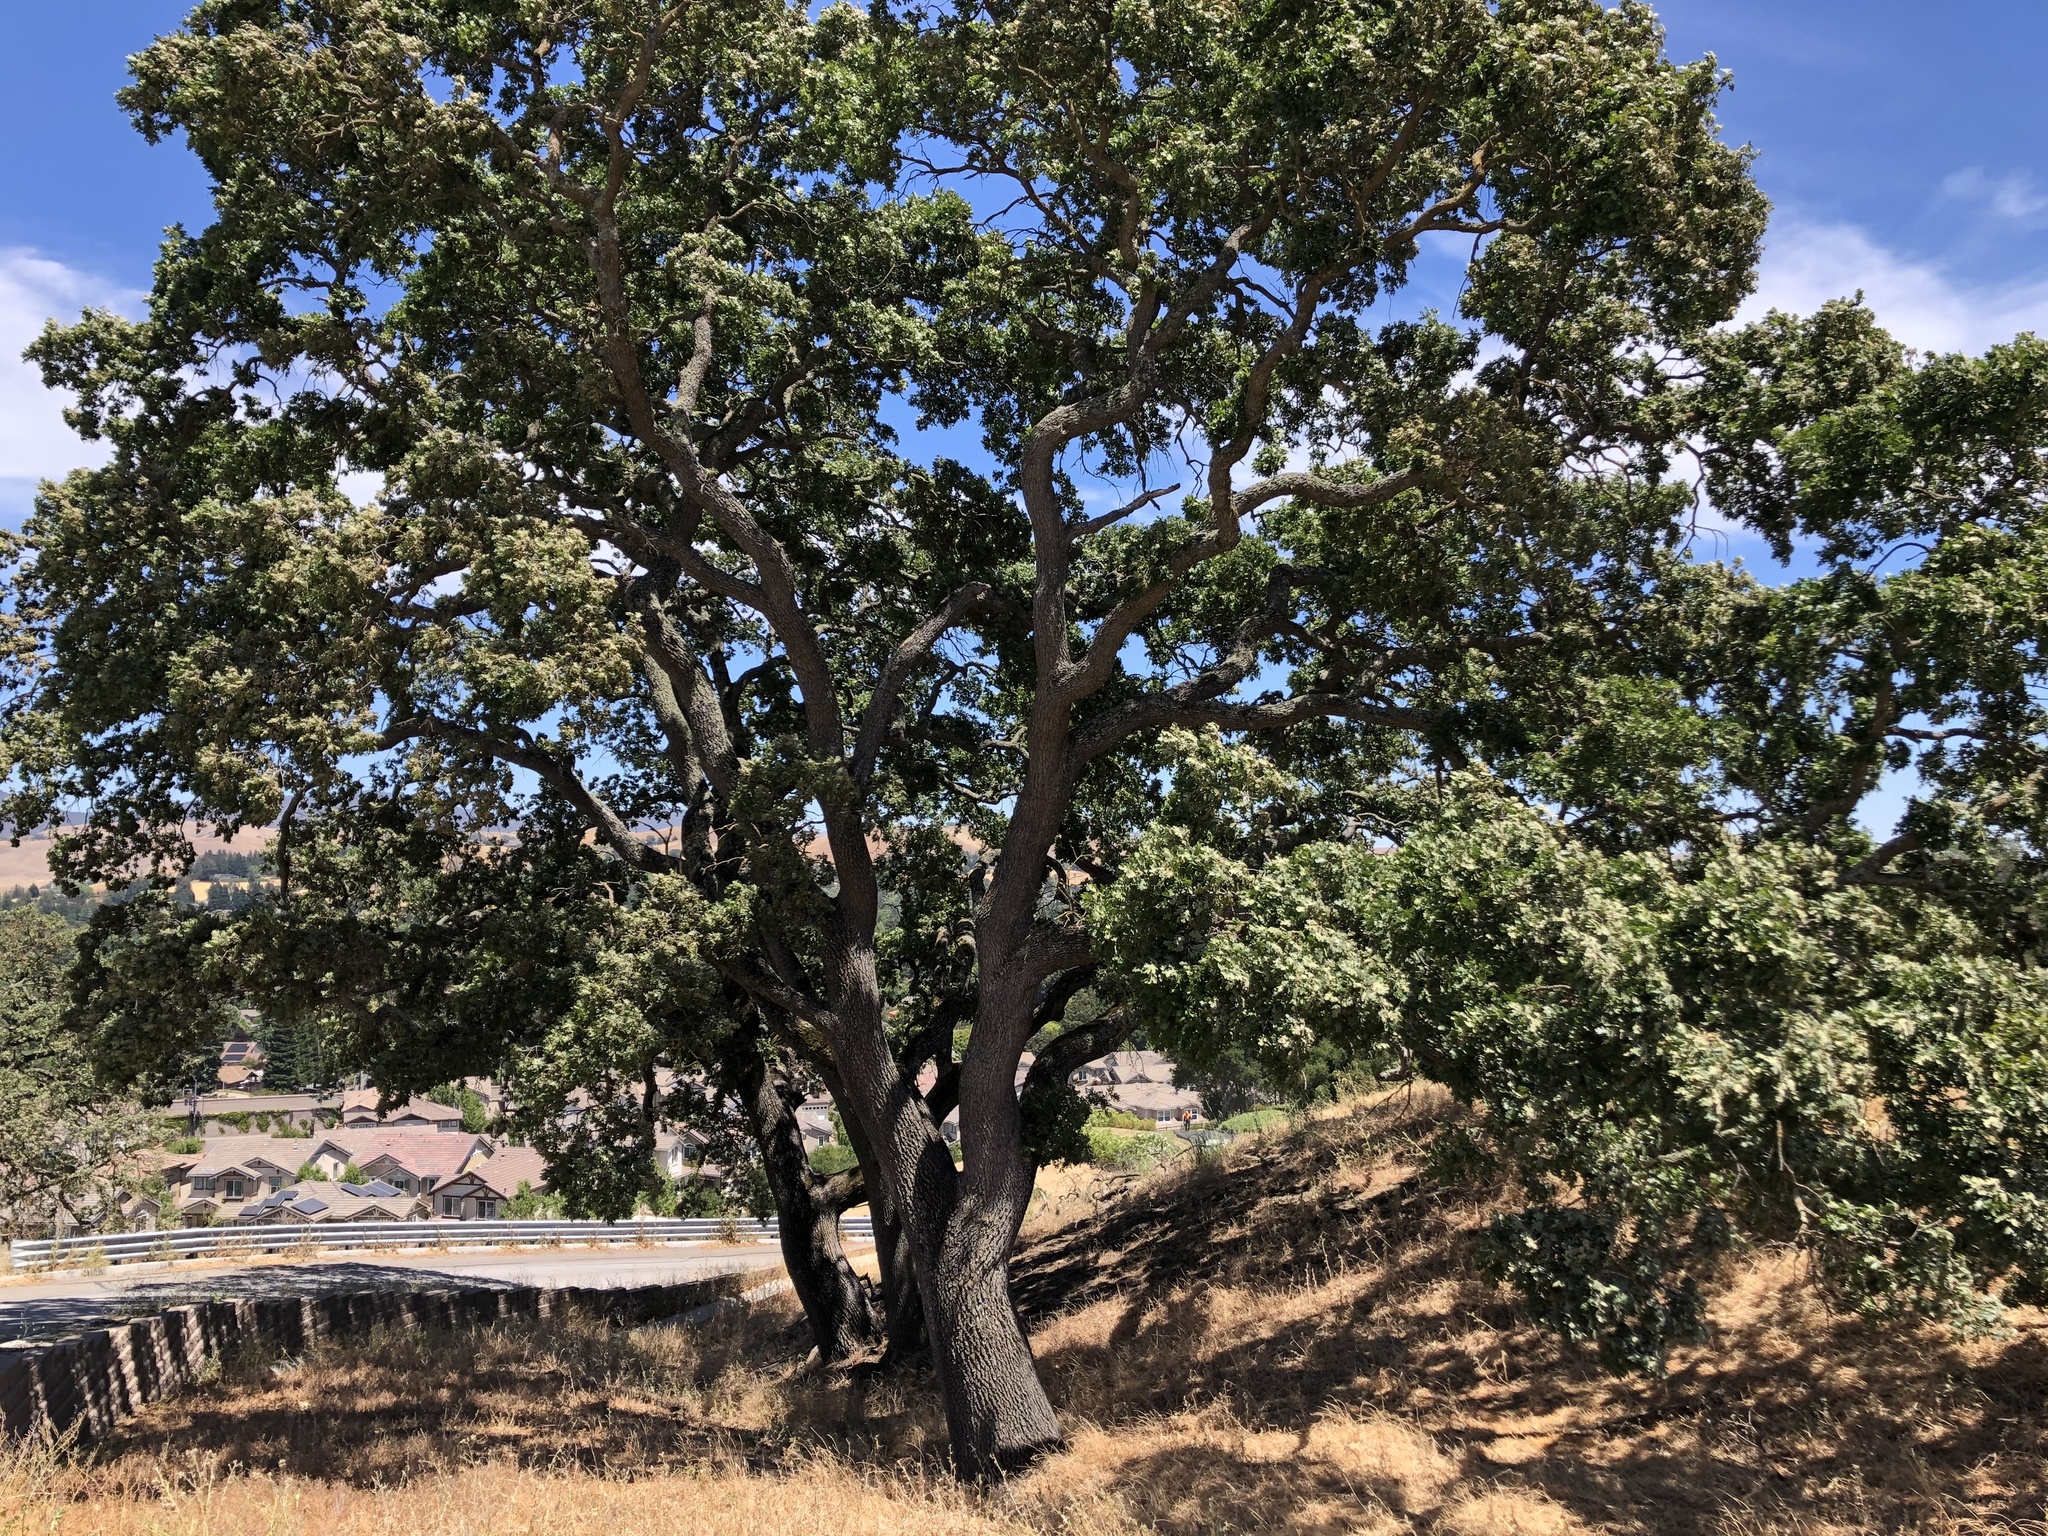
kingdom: Plantae
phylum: Tracheophyta
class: Magnoliopsida
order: Fagales
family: Fagaceae
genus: Quercus
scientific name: Quercus lobata
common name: Valley oak
